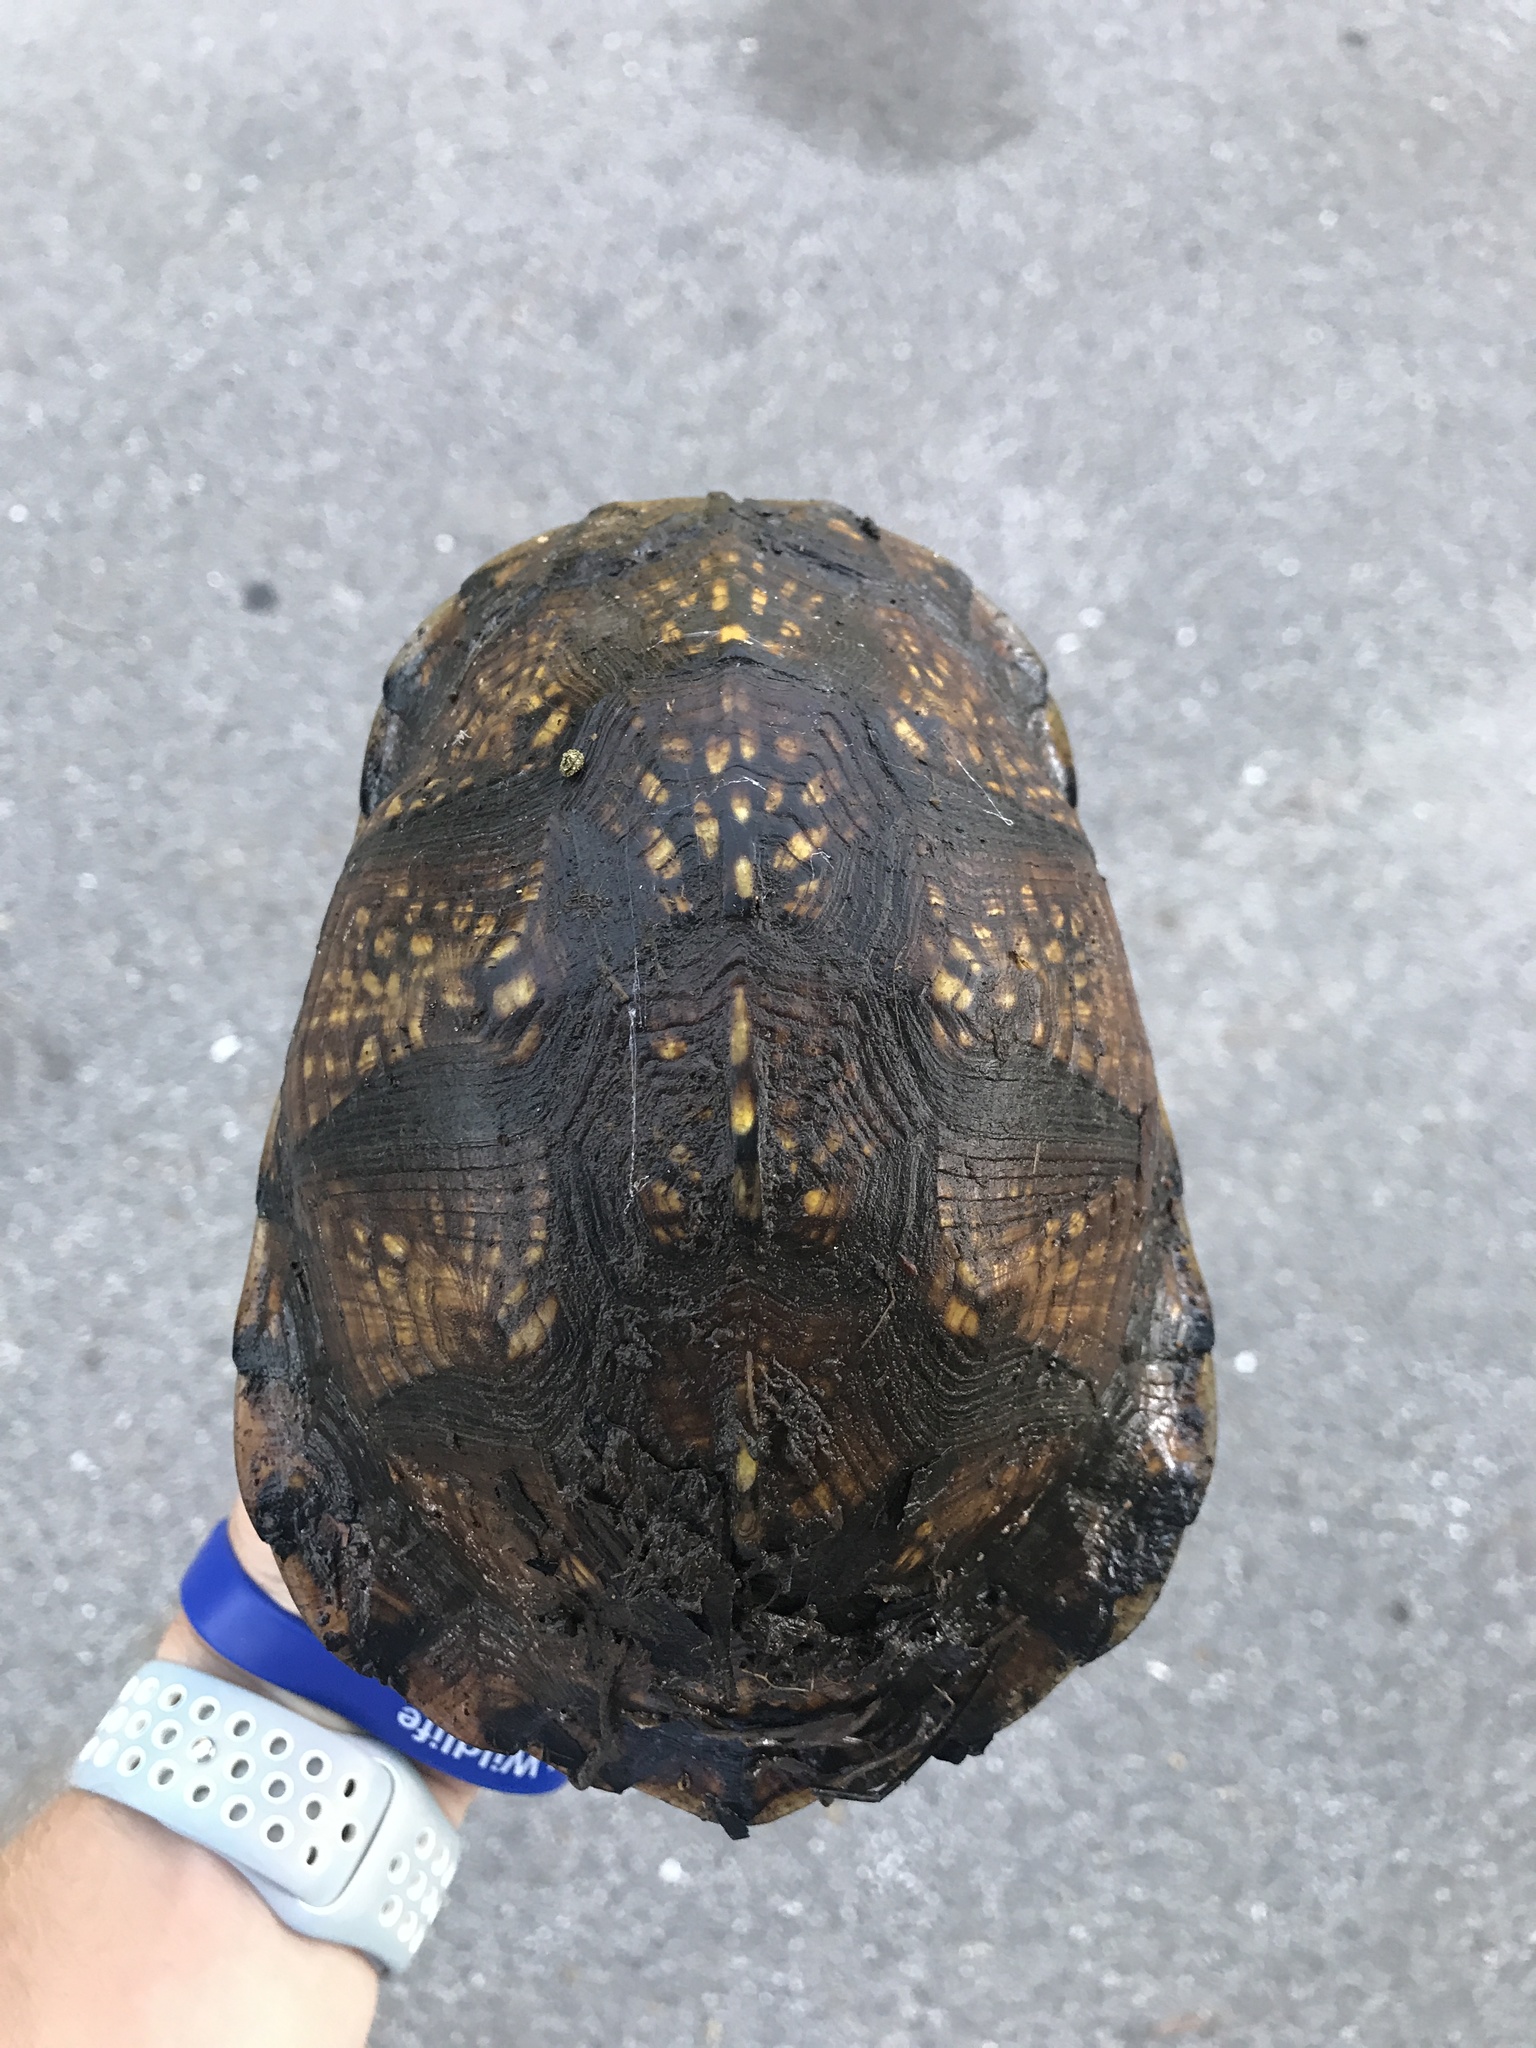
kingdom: Animalia
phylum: Chordata
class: Testudines
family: Emydidae
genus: Terrapene
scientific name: Terrapene carolina
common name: Common box turtle
